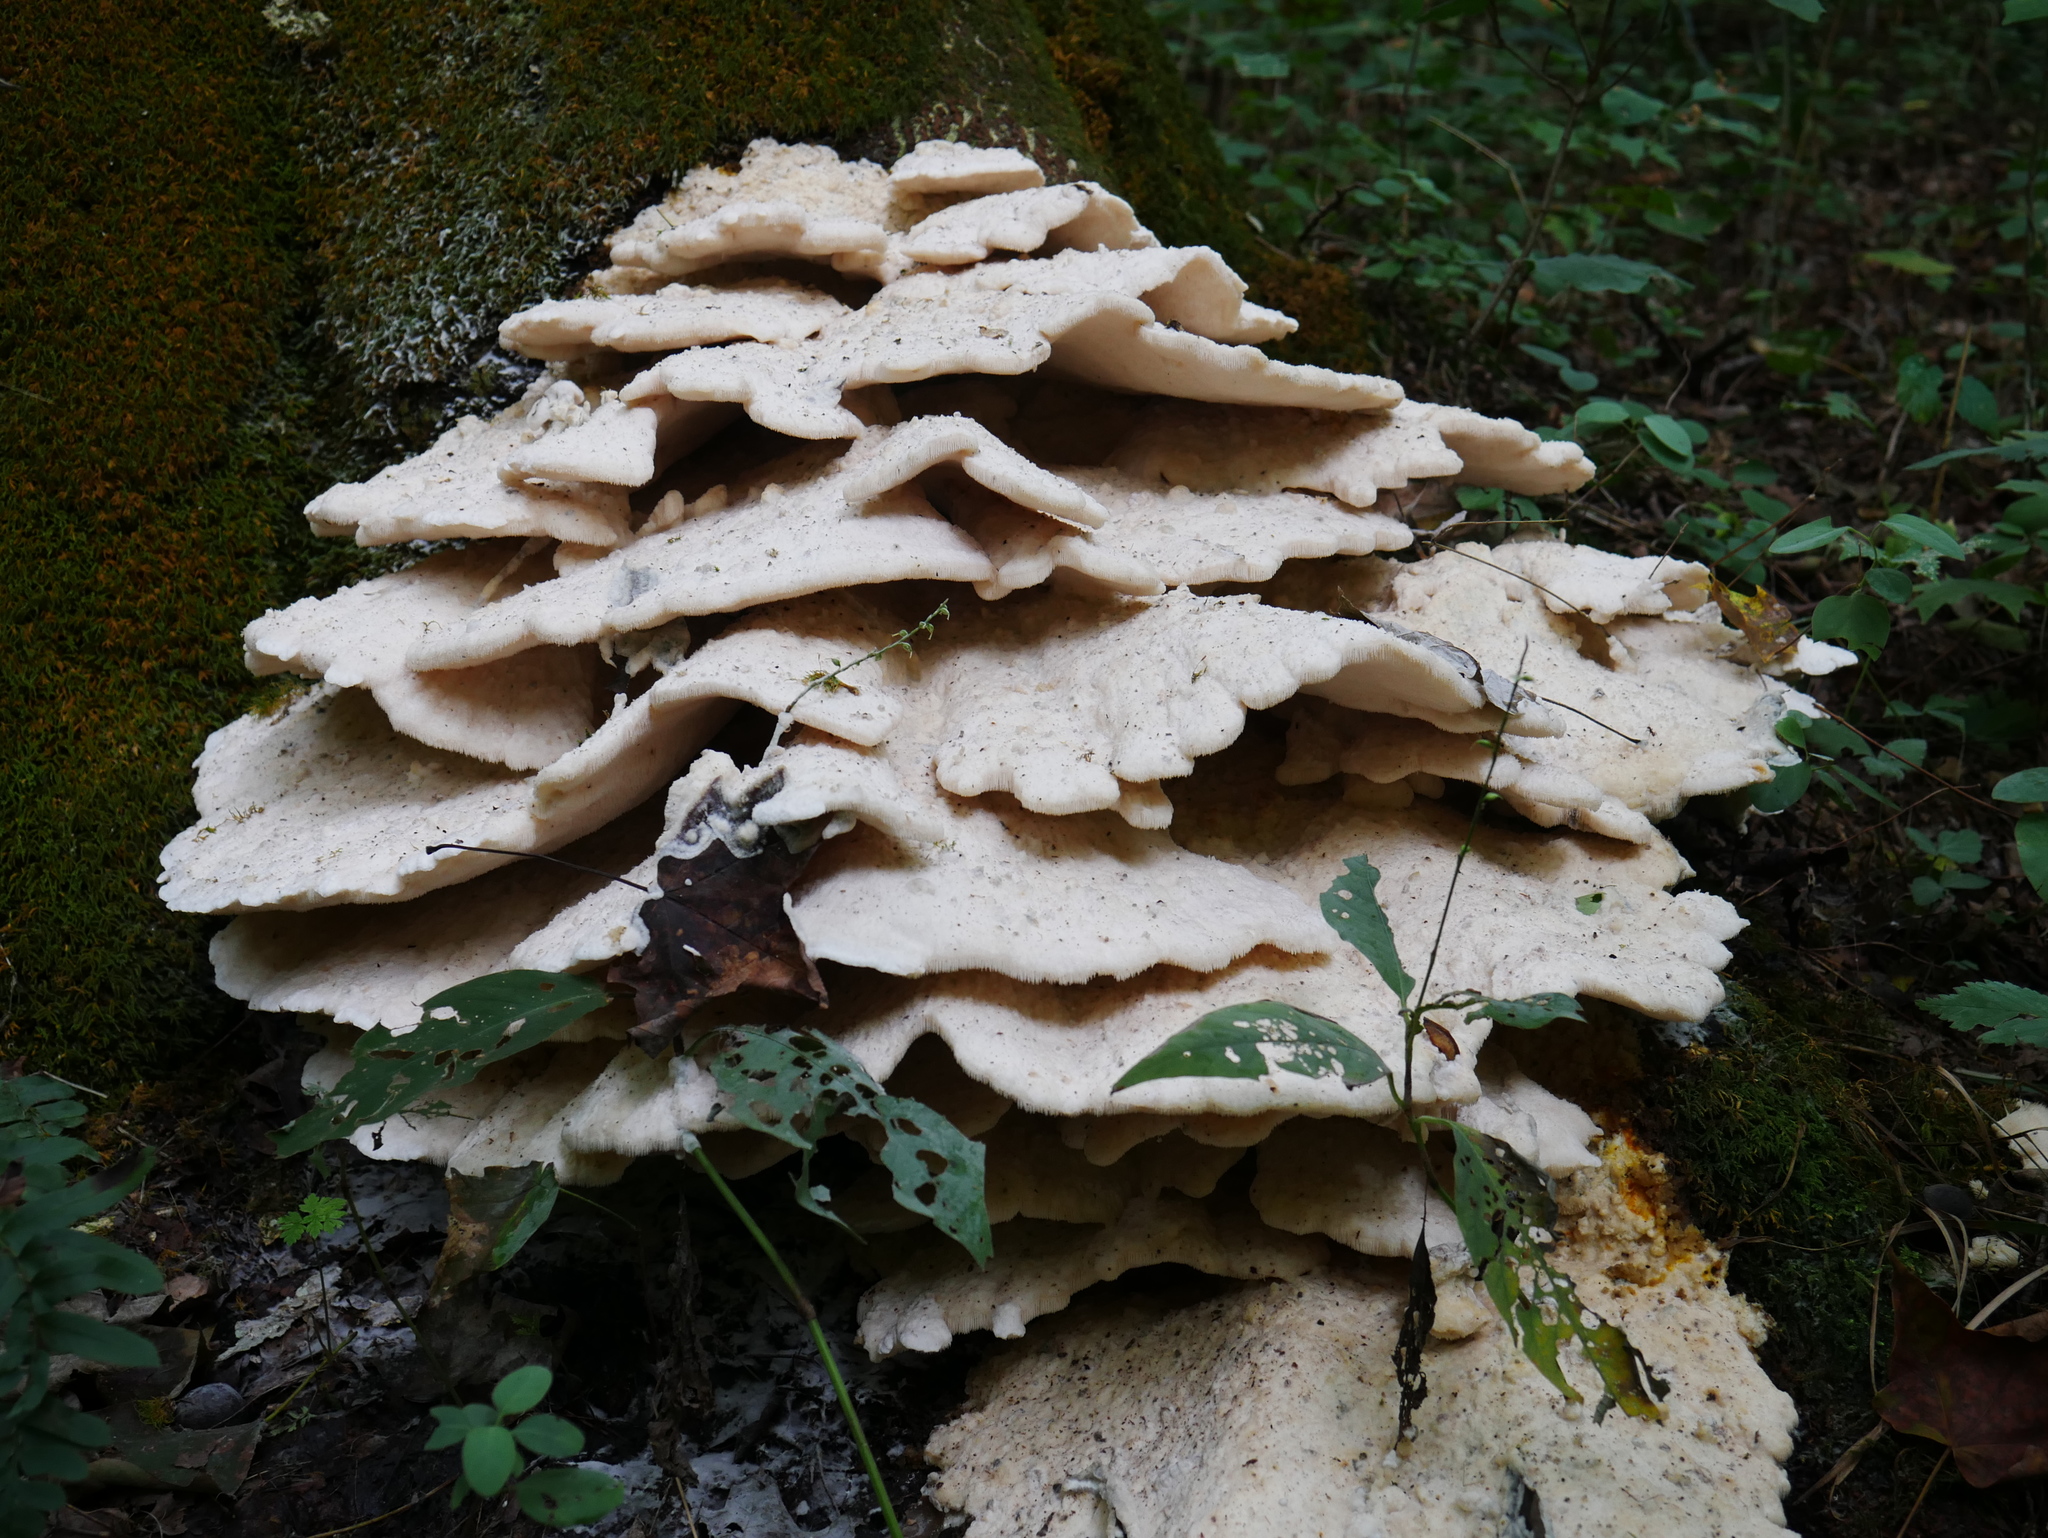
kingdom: Fungi
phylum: Basidiomycota
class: Agaricomycetes
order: Polyporales
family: Meruliaceae
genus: Climacodon
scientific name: Climacodon septentrionalis
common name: Northern tooth
